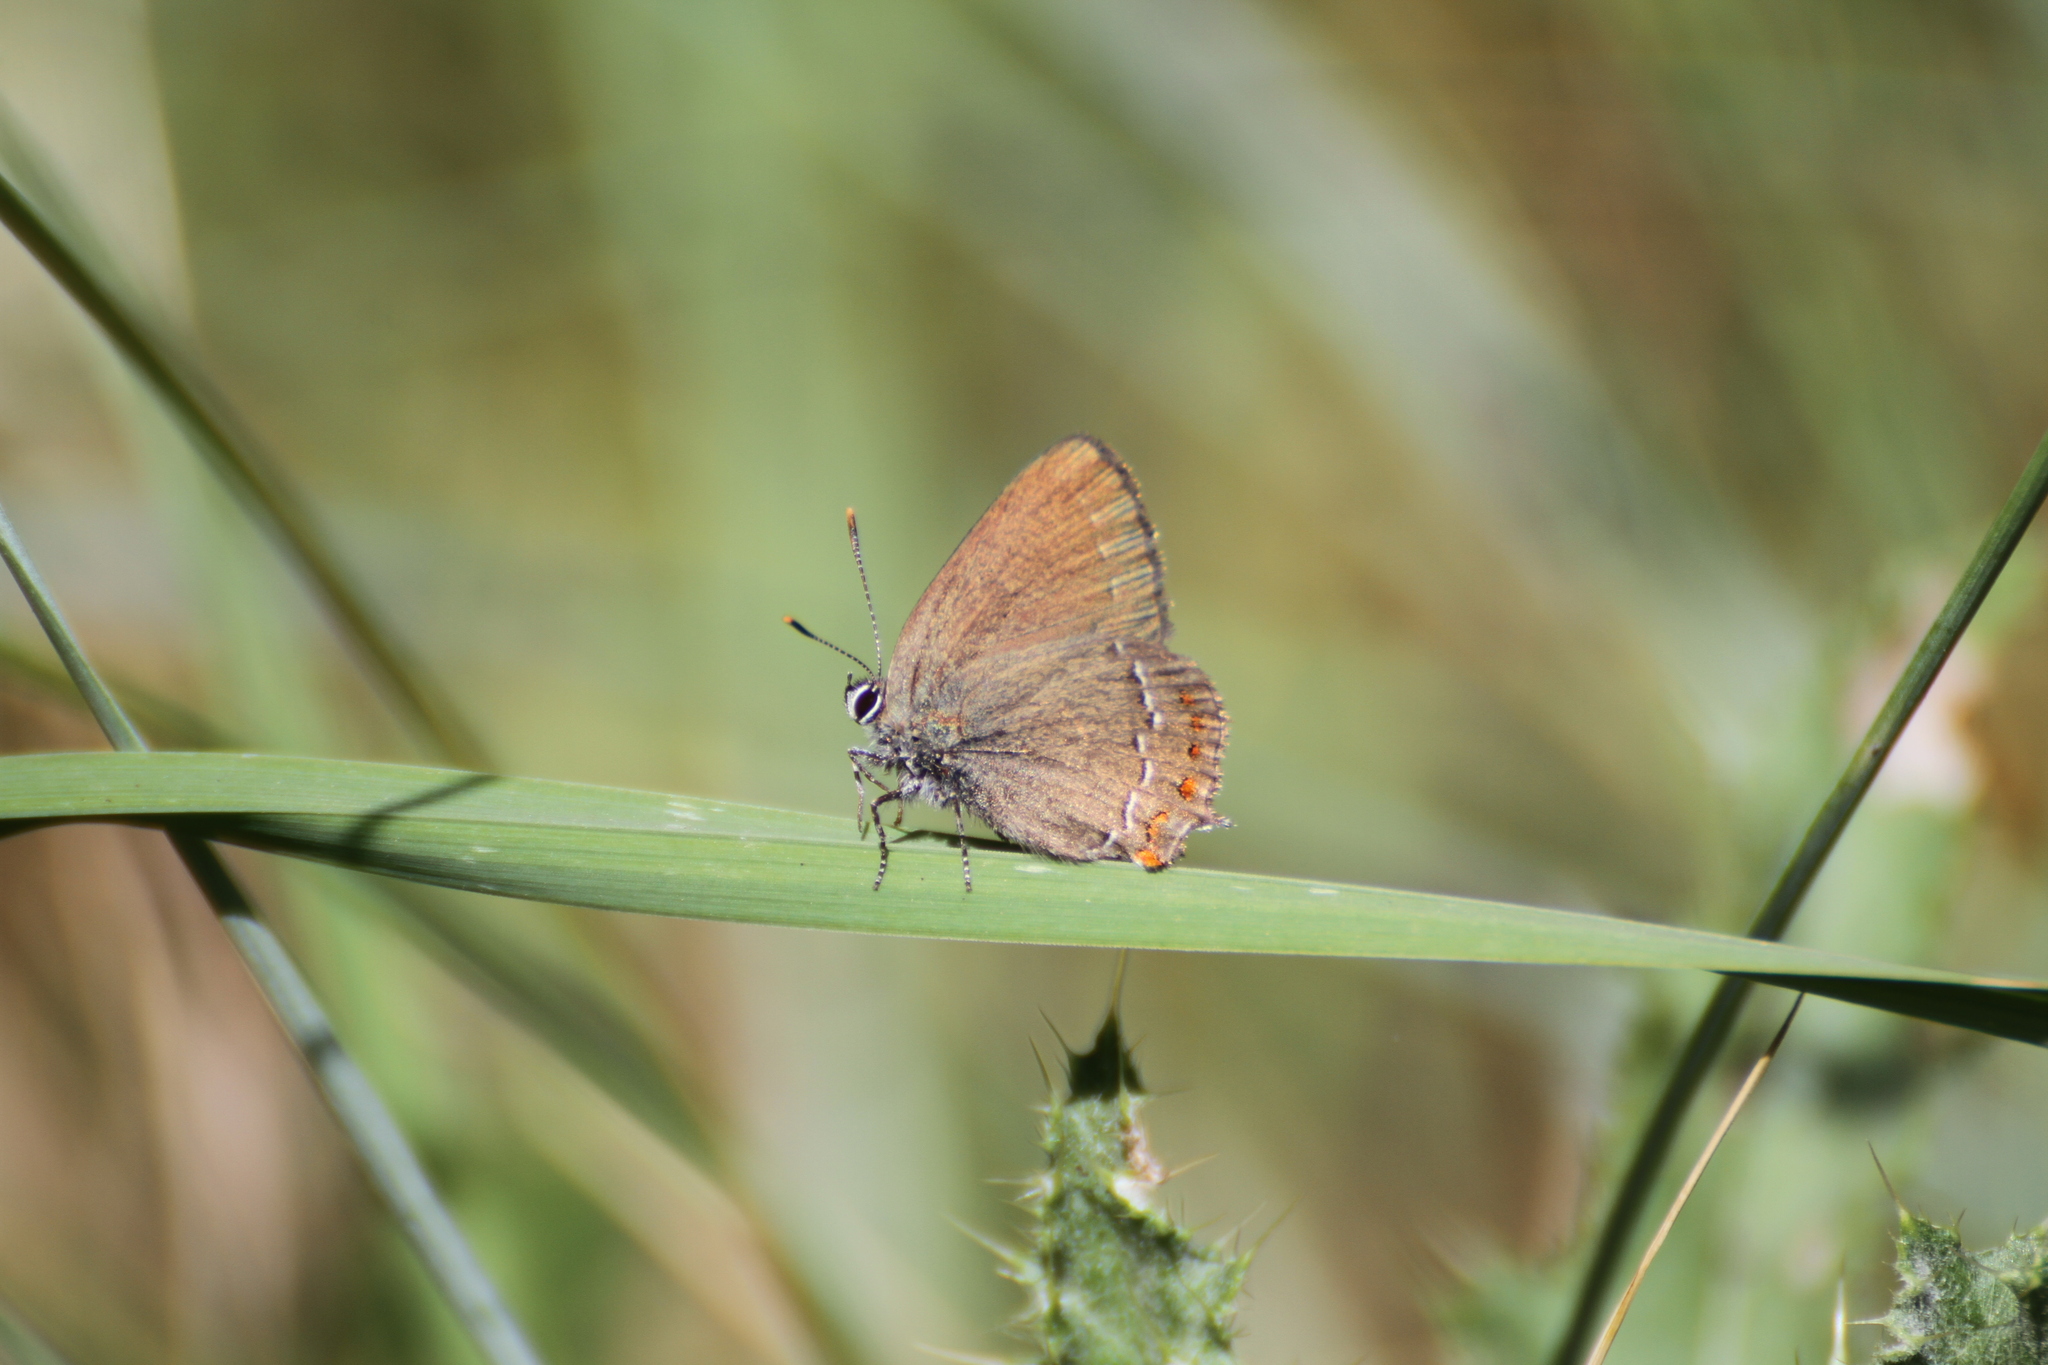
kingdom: Animalia
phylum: Arthropoda
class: Insecta
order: Lepidoptera
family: Lycaenidae
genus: Fixsenia
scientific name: Fixsenia esculi
